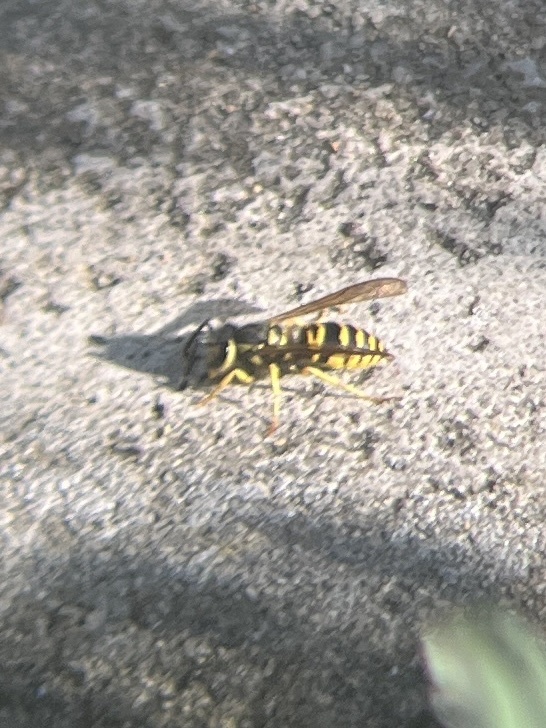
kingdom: Animalia
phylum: Arthropoda
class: Insecta
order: Hymenoptera
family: Vespidae
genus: Vespula
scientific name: Vespula maculifrons
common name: Eastern yellowjacket
